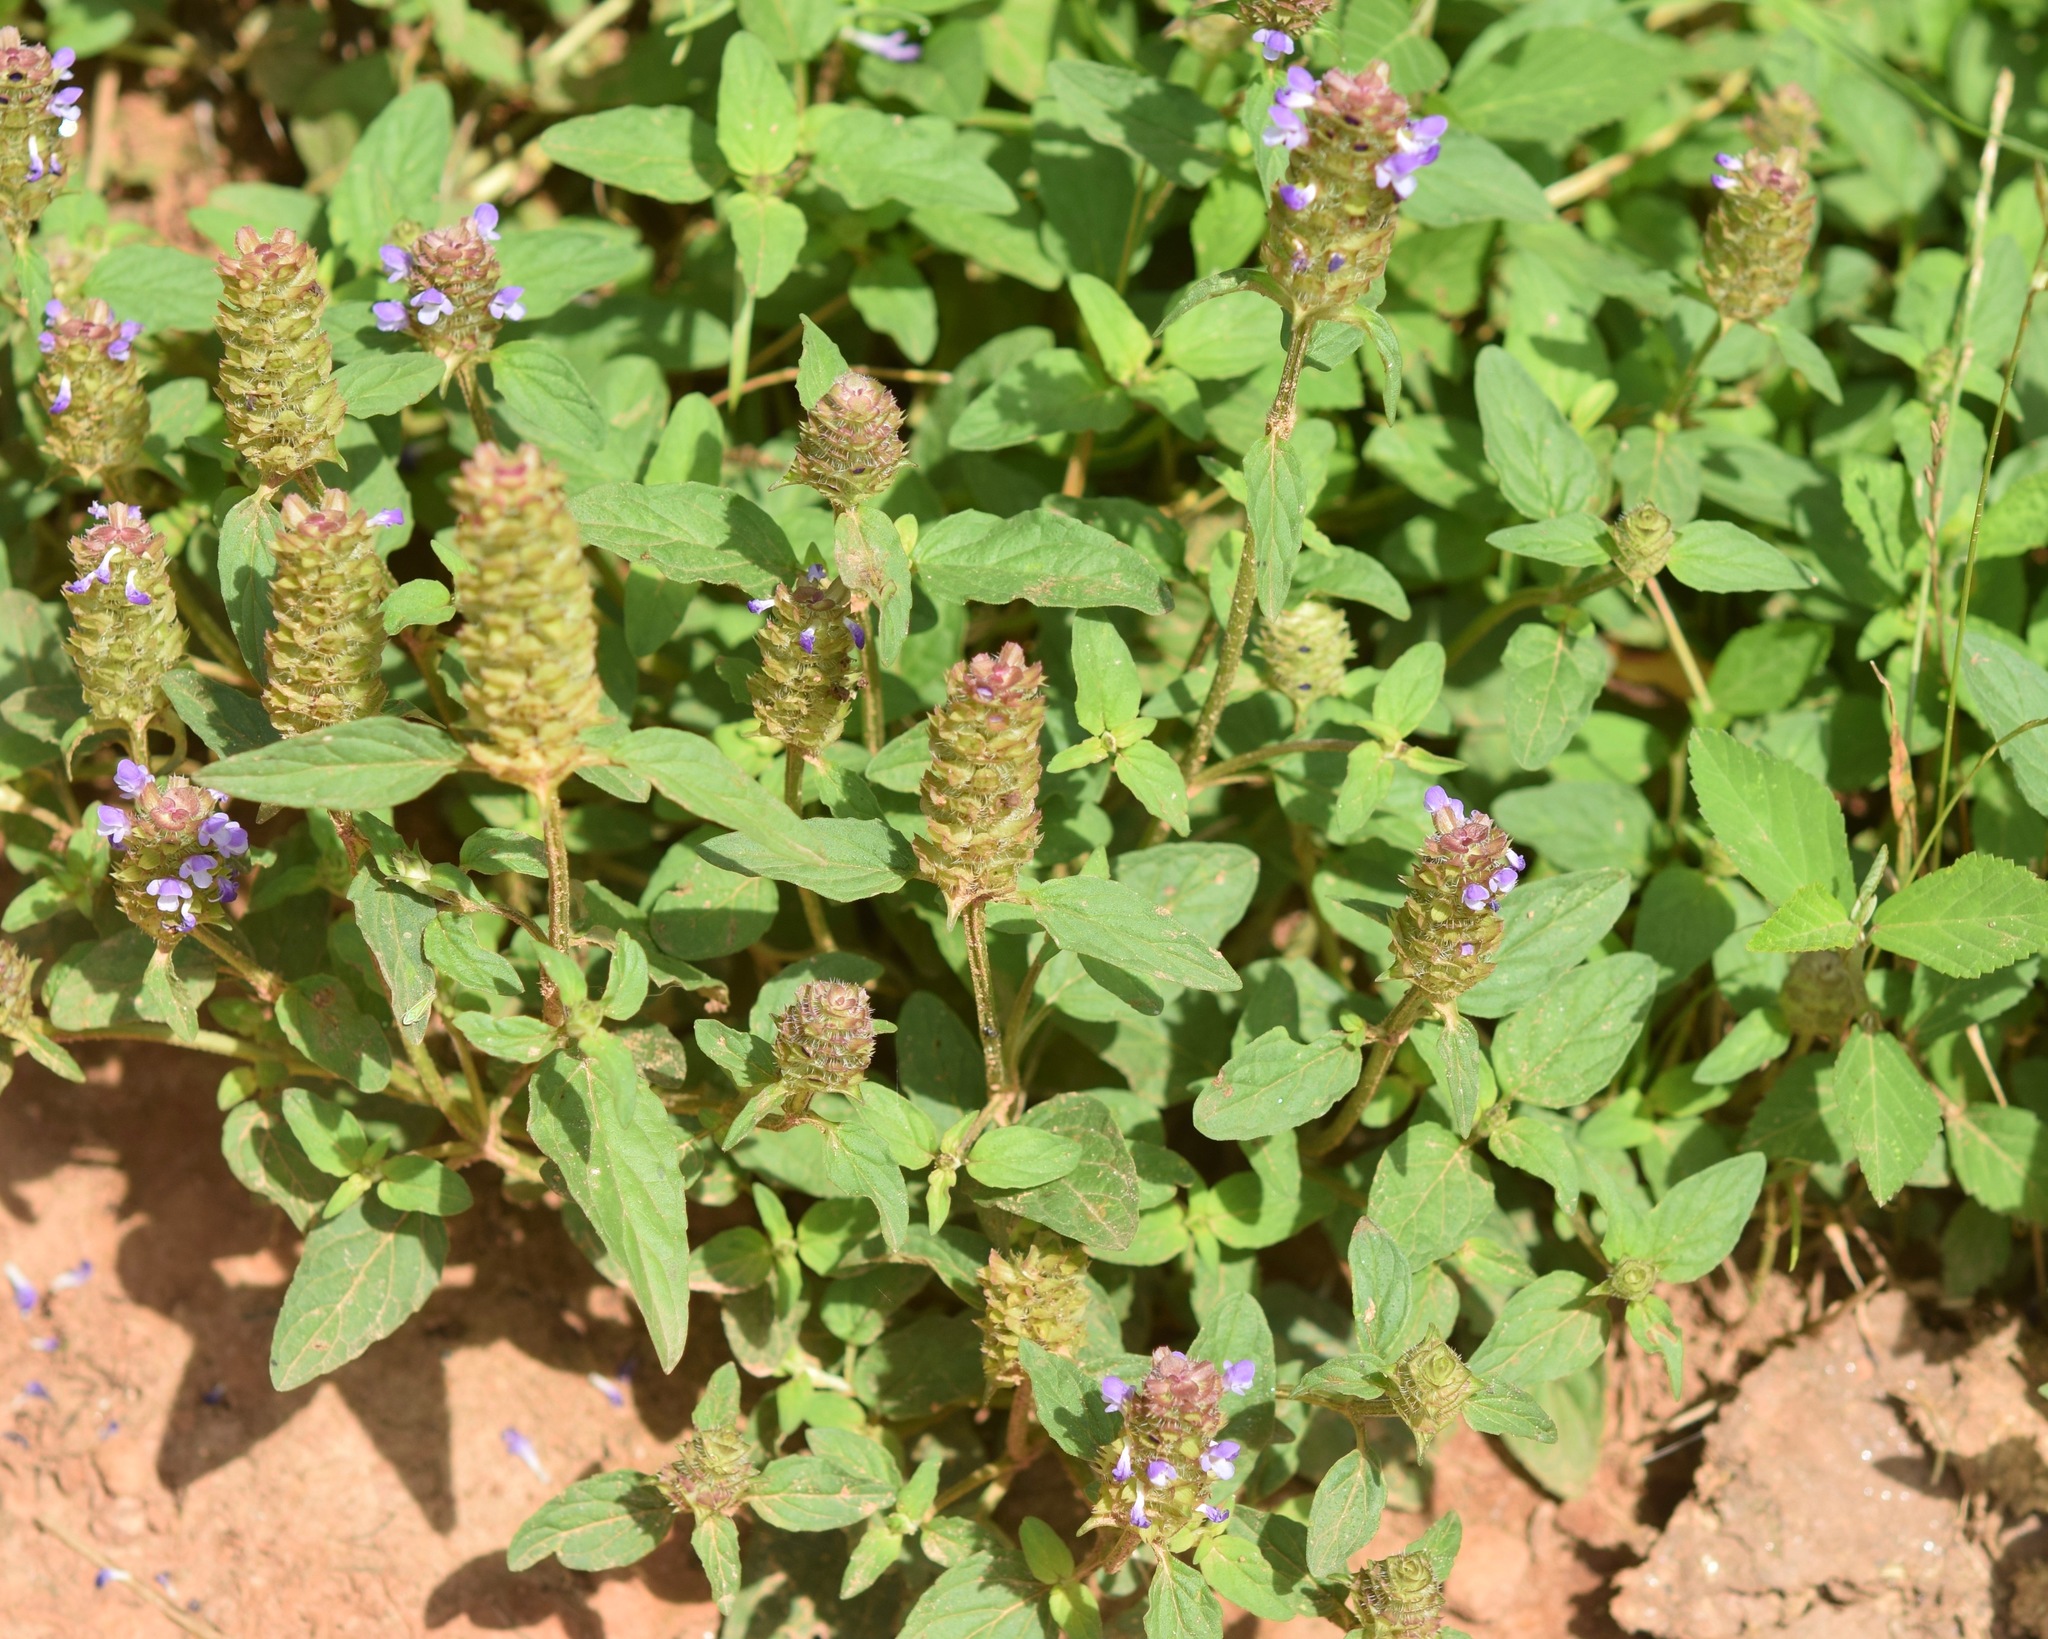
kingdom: Plantae
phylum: Tracheophyta
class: Magnoliopsida
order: Lamiales
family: Lamiaceae
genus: Prunella
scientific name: Prunella vulgaris
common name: Heal-all
